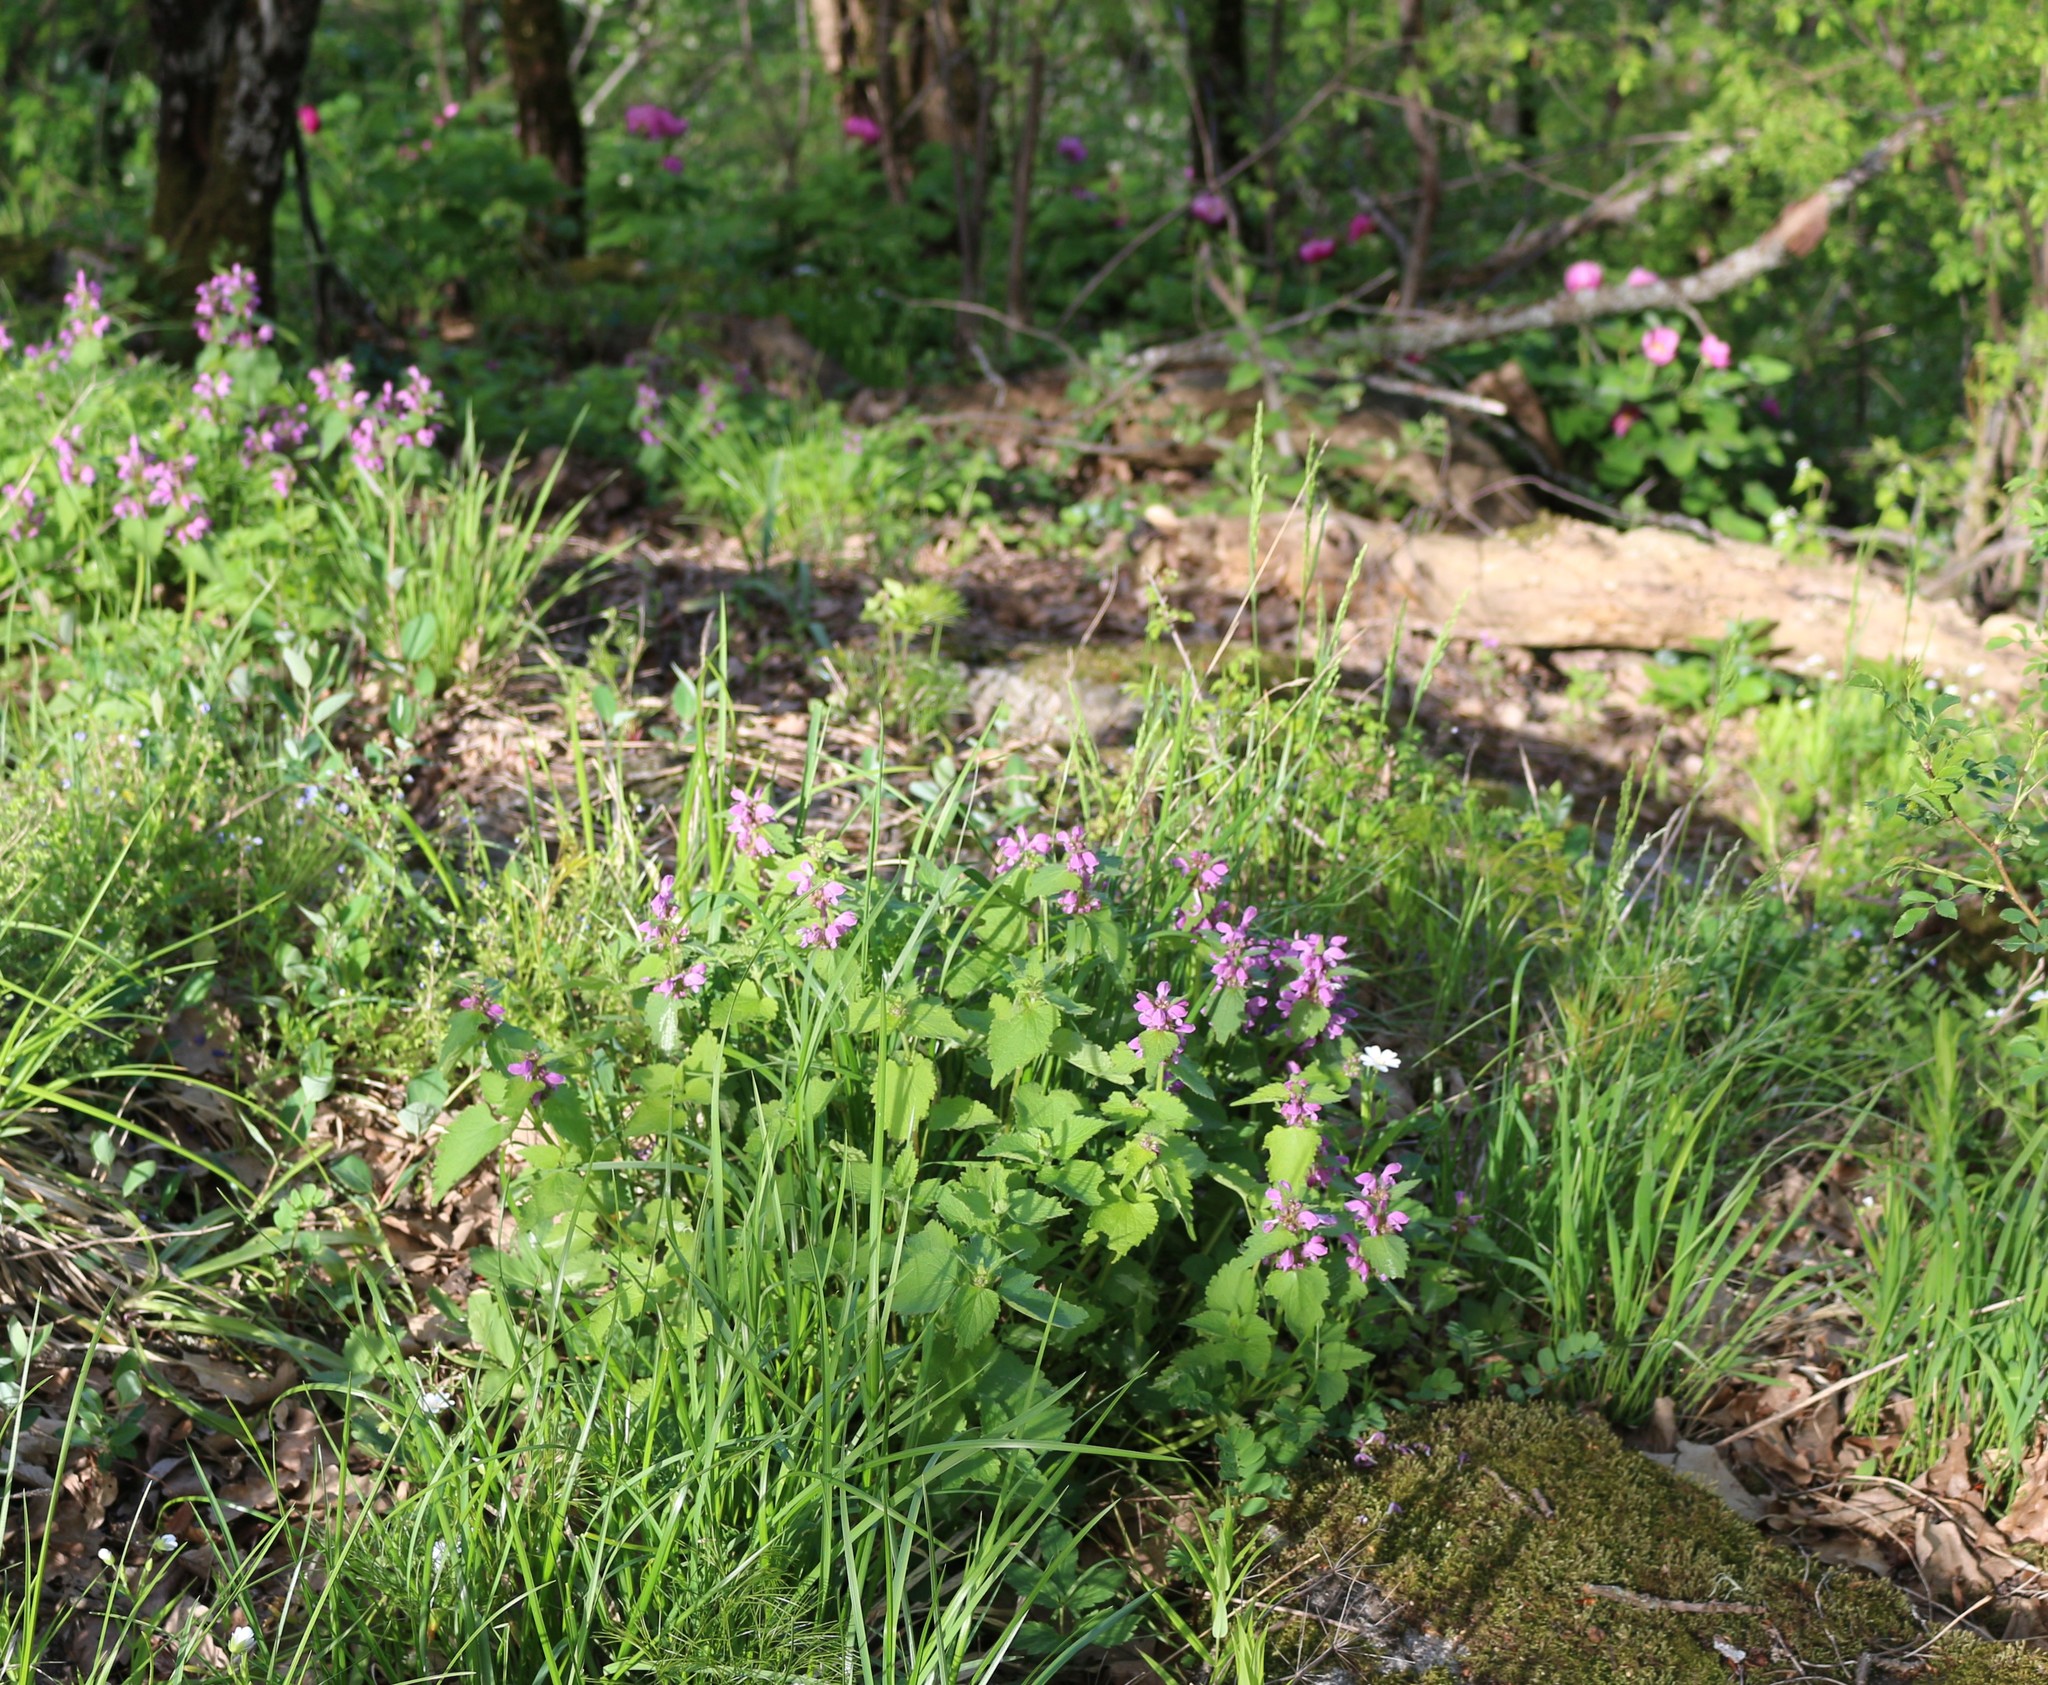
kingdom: Plantae
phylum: Tracheophyta
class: Magnoliopsida
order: Lamiales
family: Lamiaceae
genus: Lamium
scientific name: Lamium maculatum
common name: Spotted dead-nettle
